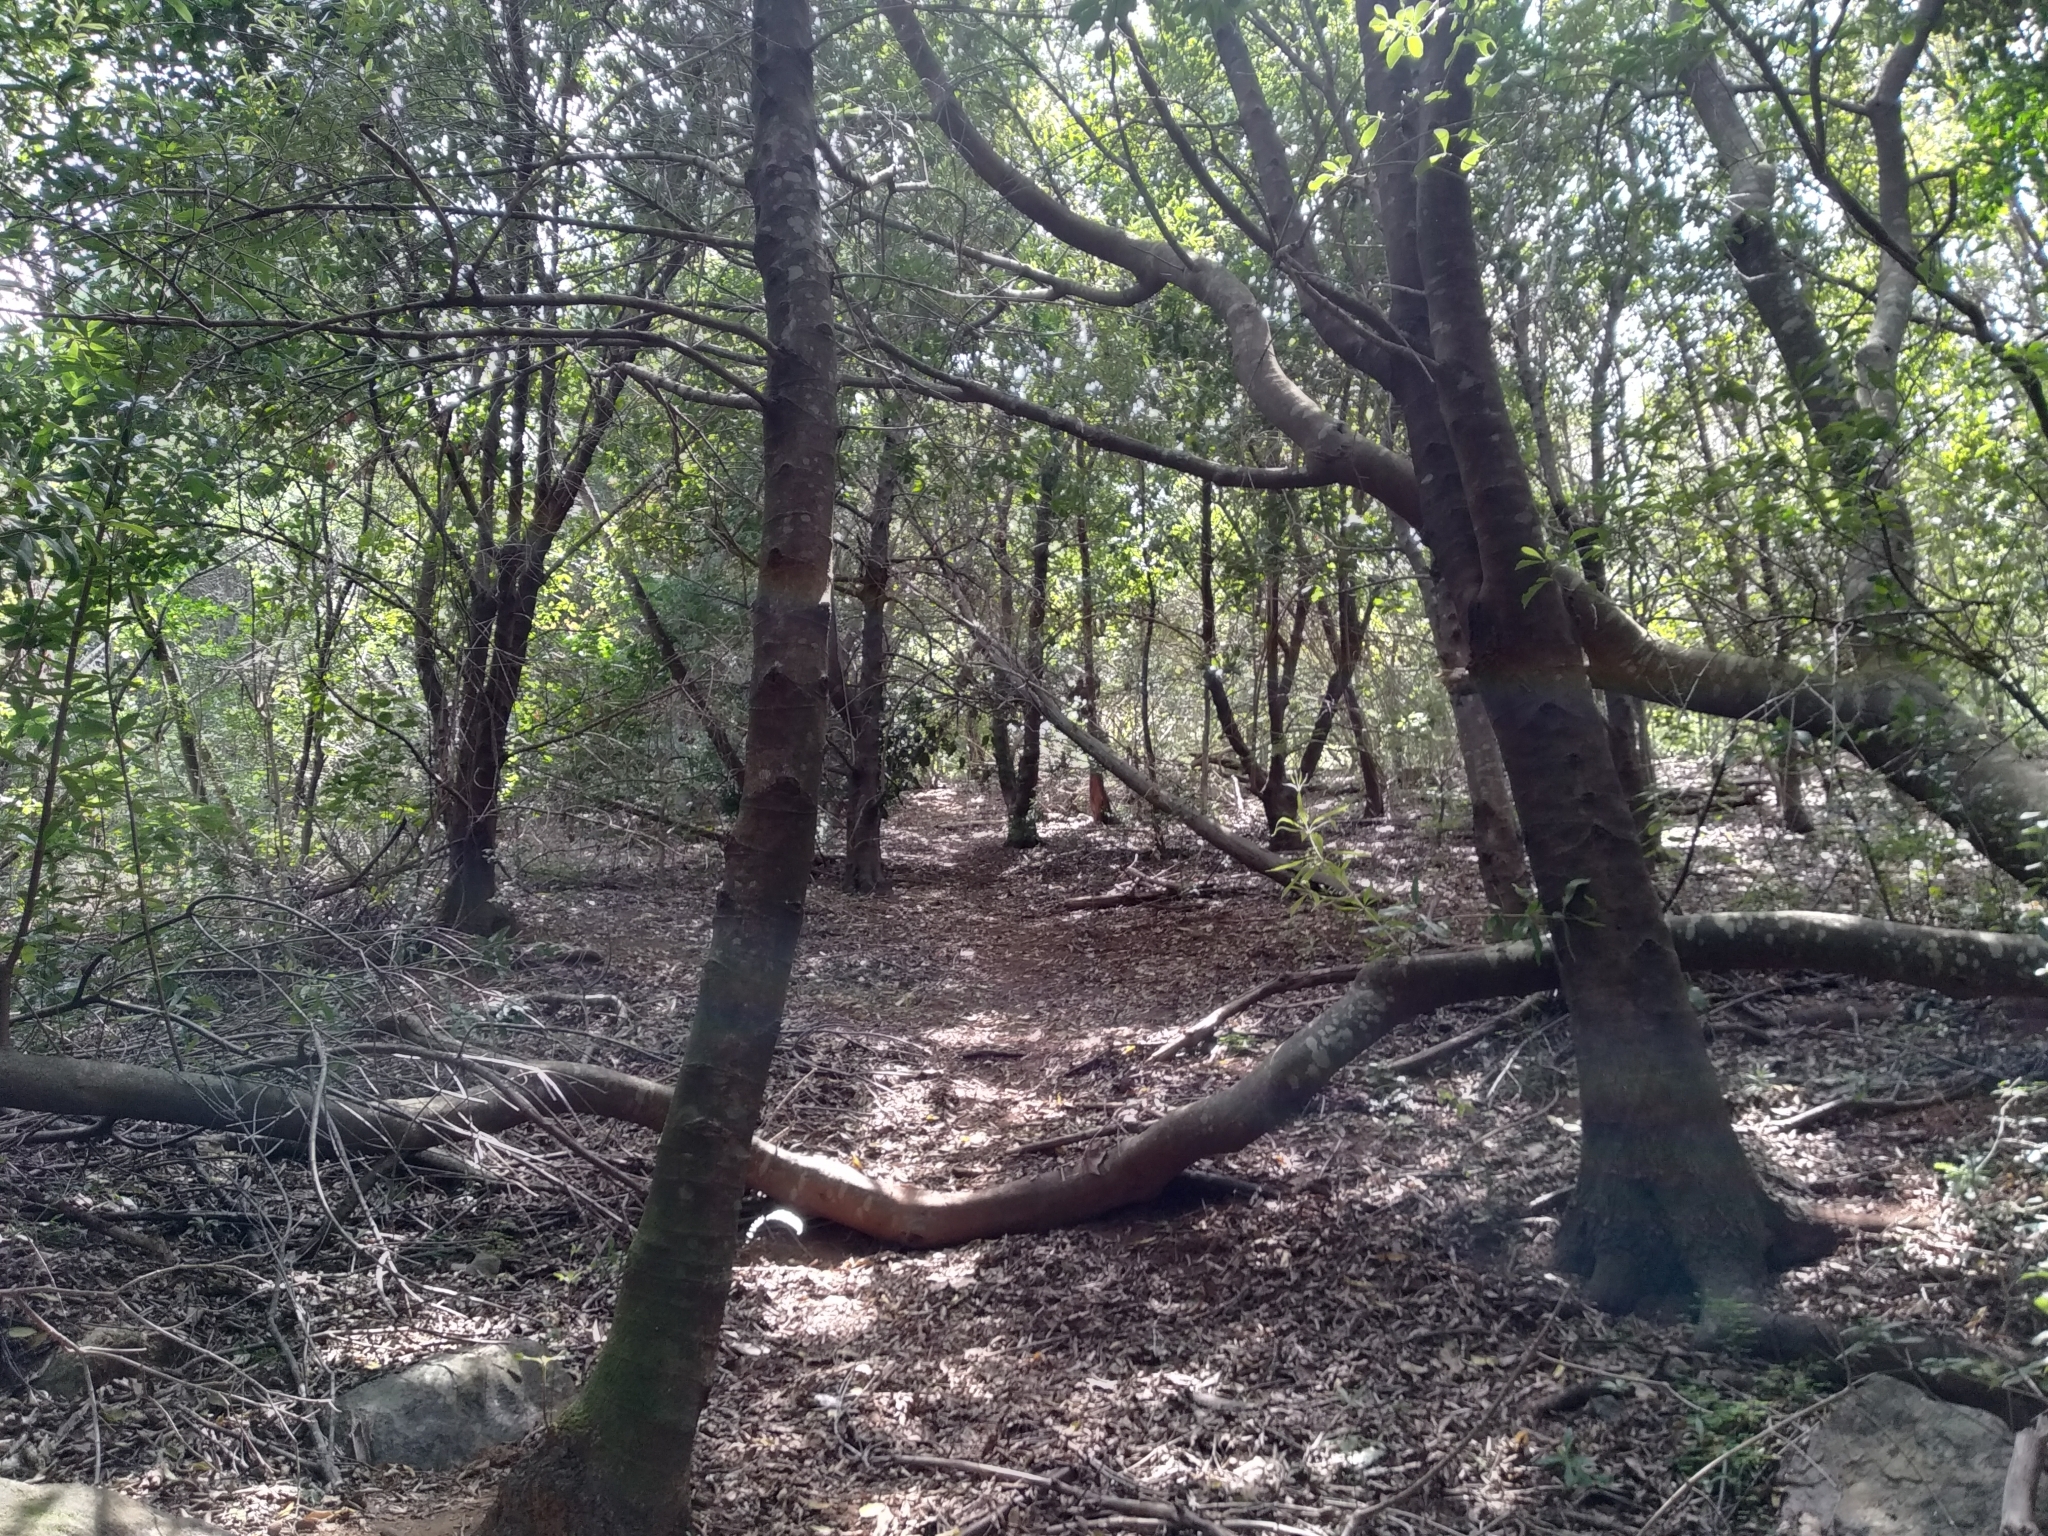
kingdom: Plantae
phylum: Tracheophyta
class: Magnoliopsida
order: Proteales
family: Proteaceae
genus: Brabejum
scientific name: Brabejum stellatifolium
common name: Wild almond
